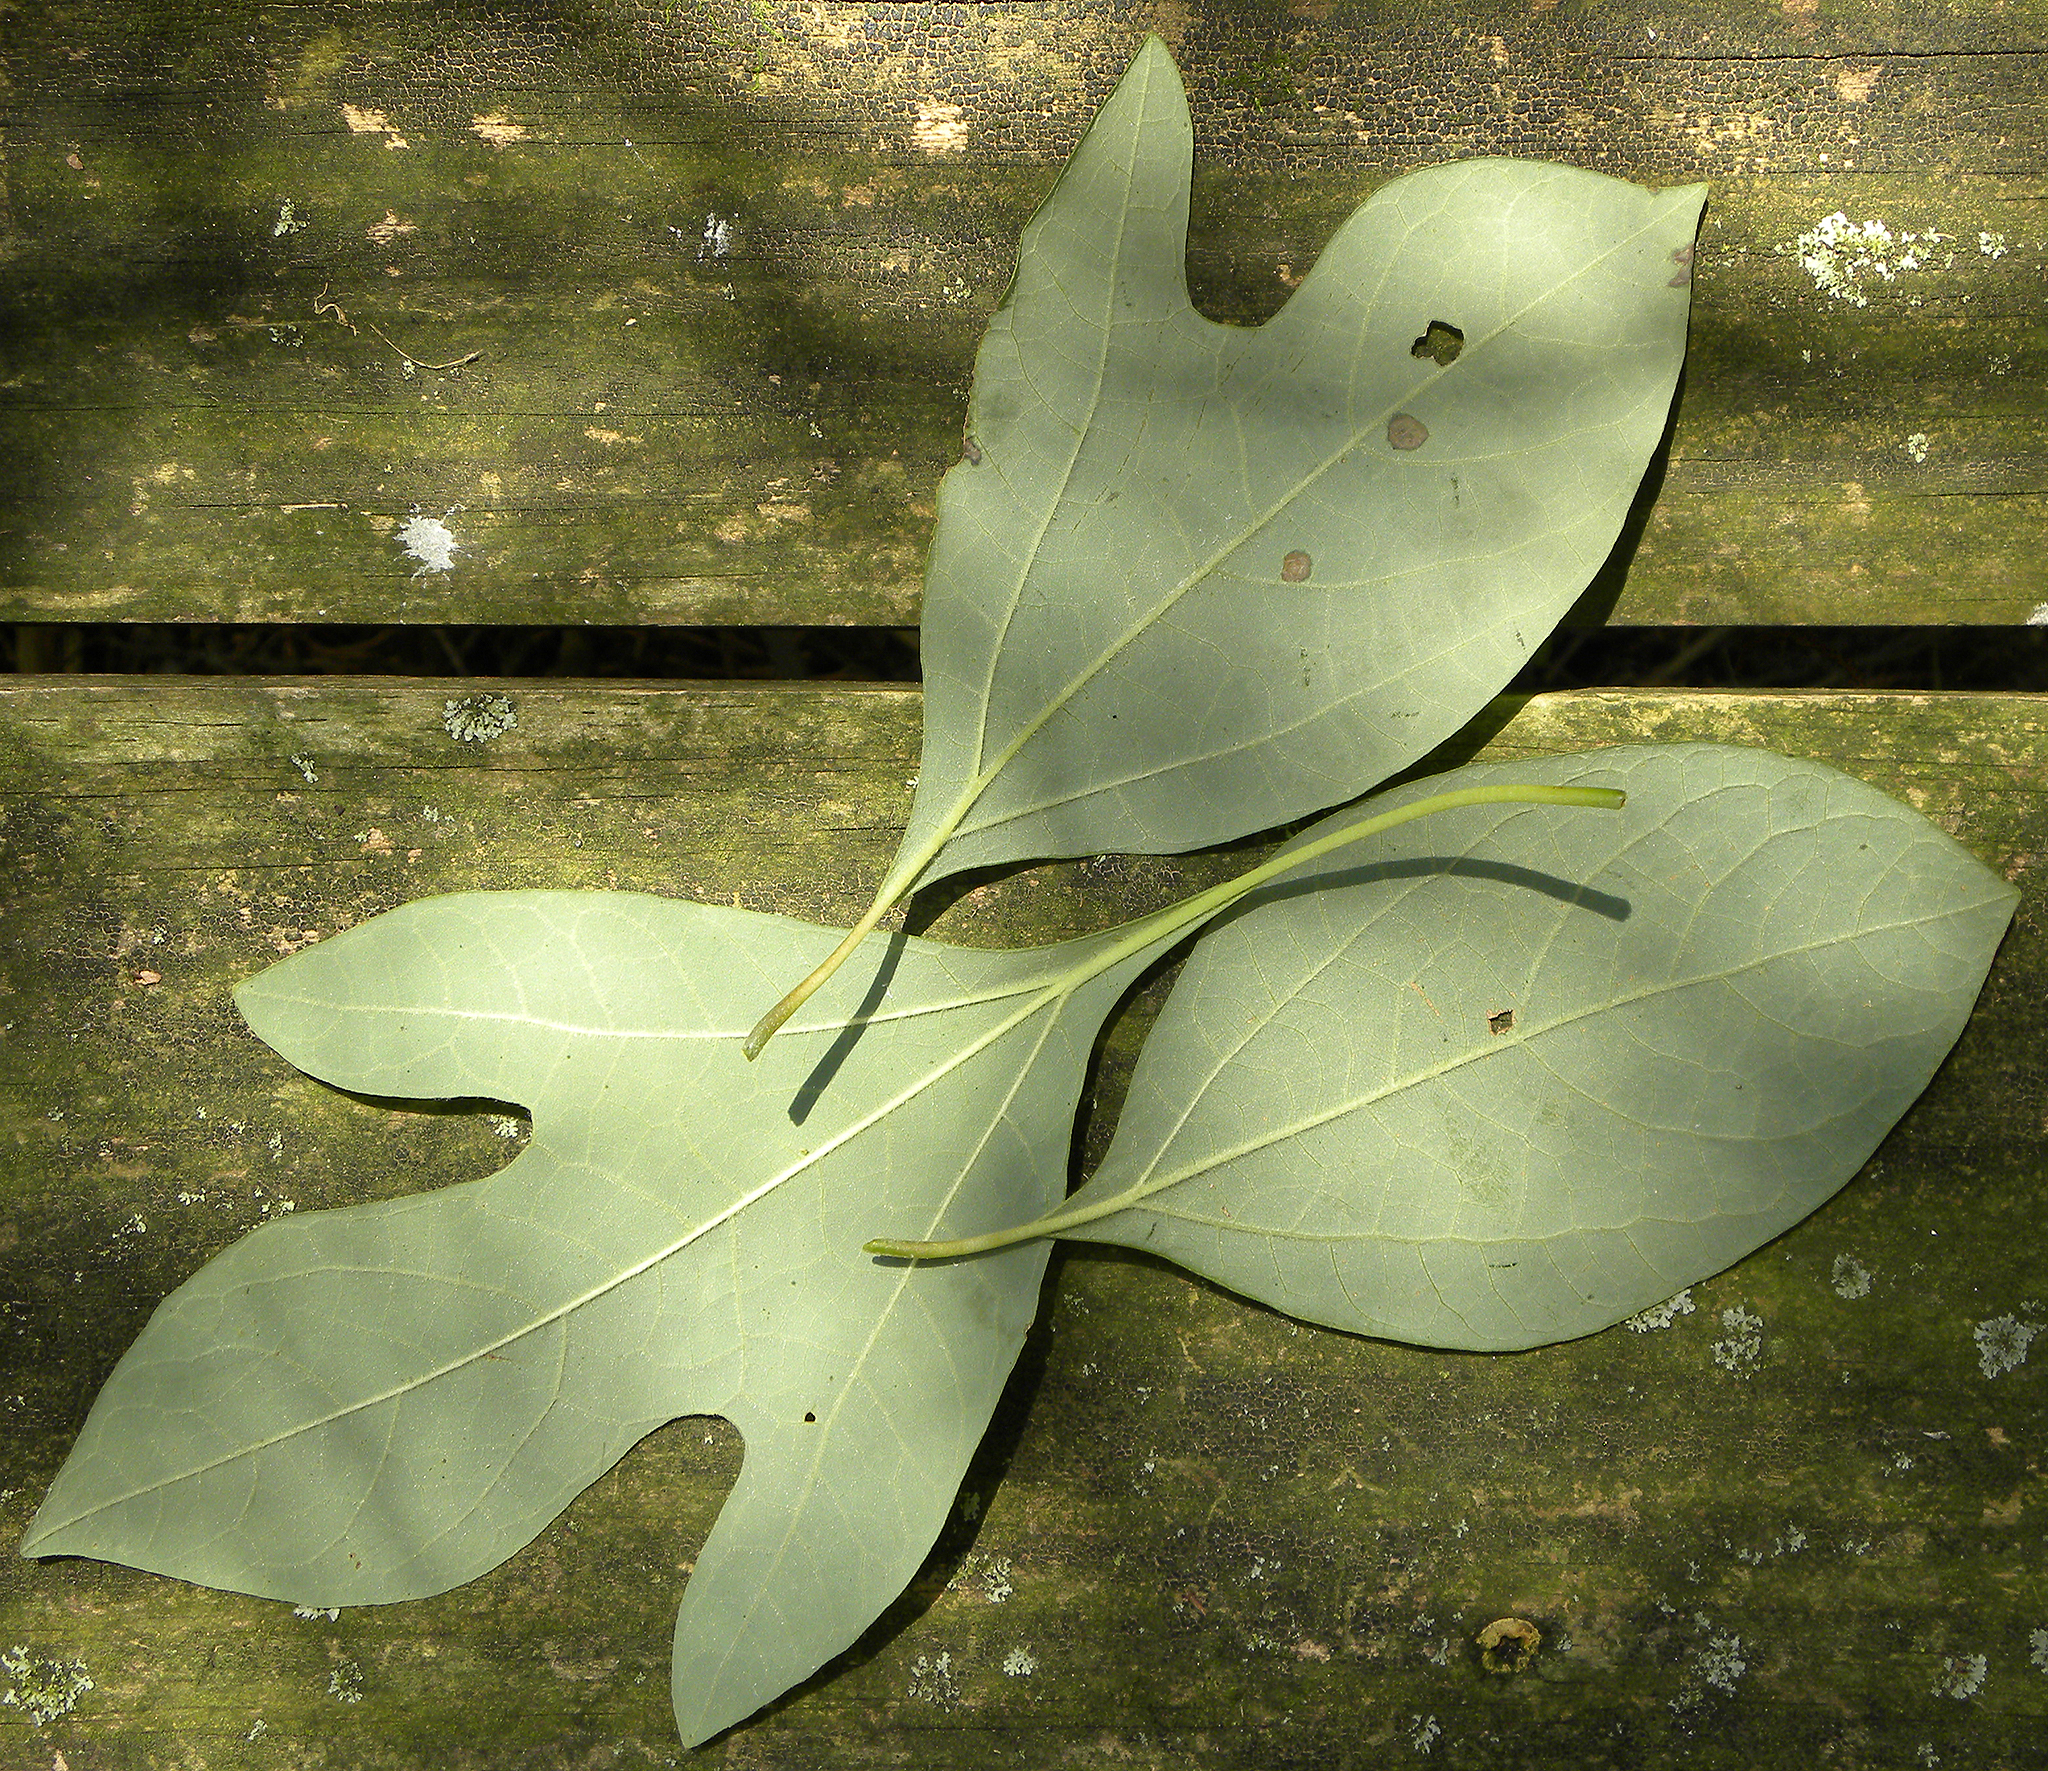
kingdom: Plantae
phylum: Tracheophyta
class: Magnoliopsida
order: Laurales
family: Lauraceae
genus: Sassafras
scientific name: Sassafras albidum
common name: Sassafras
